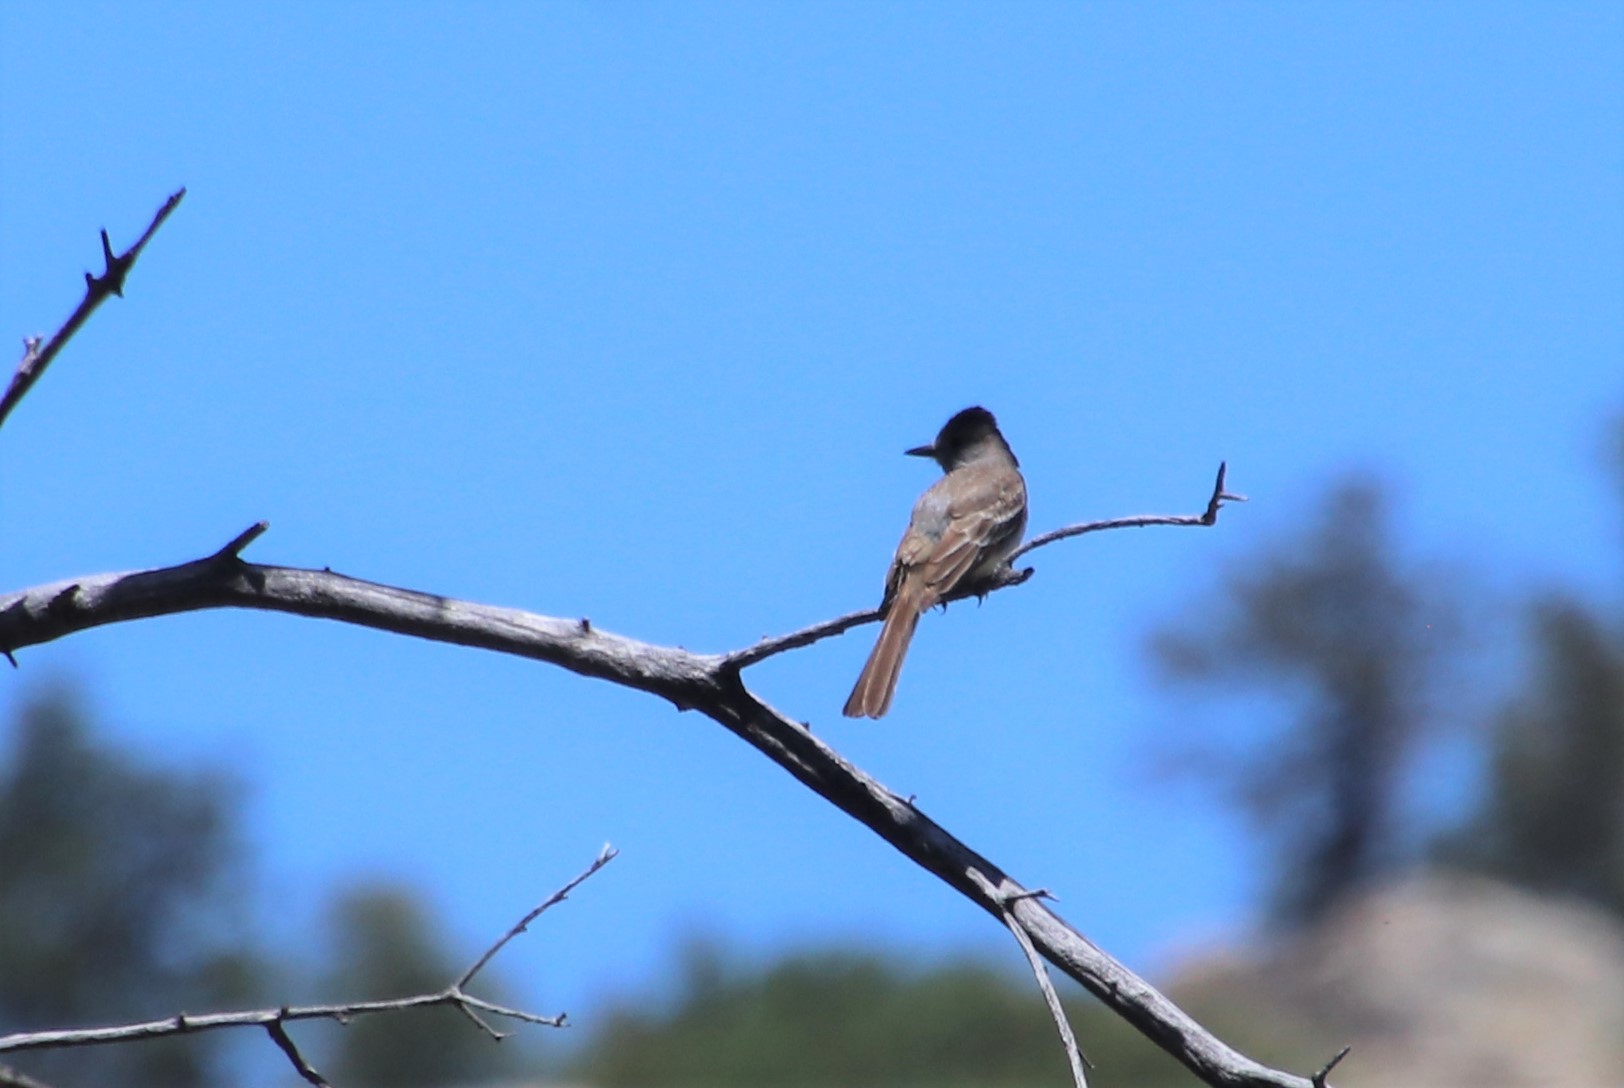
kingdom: Animalia
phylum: Chordata
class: Aves
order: Passeriformes
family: Tyrannidae
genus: Myiarchus
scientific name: Myiarchus cinerascens
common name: Ash-throated flycatcher
